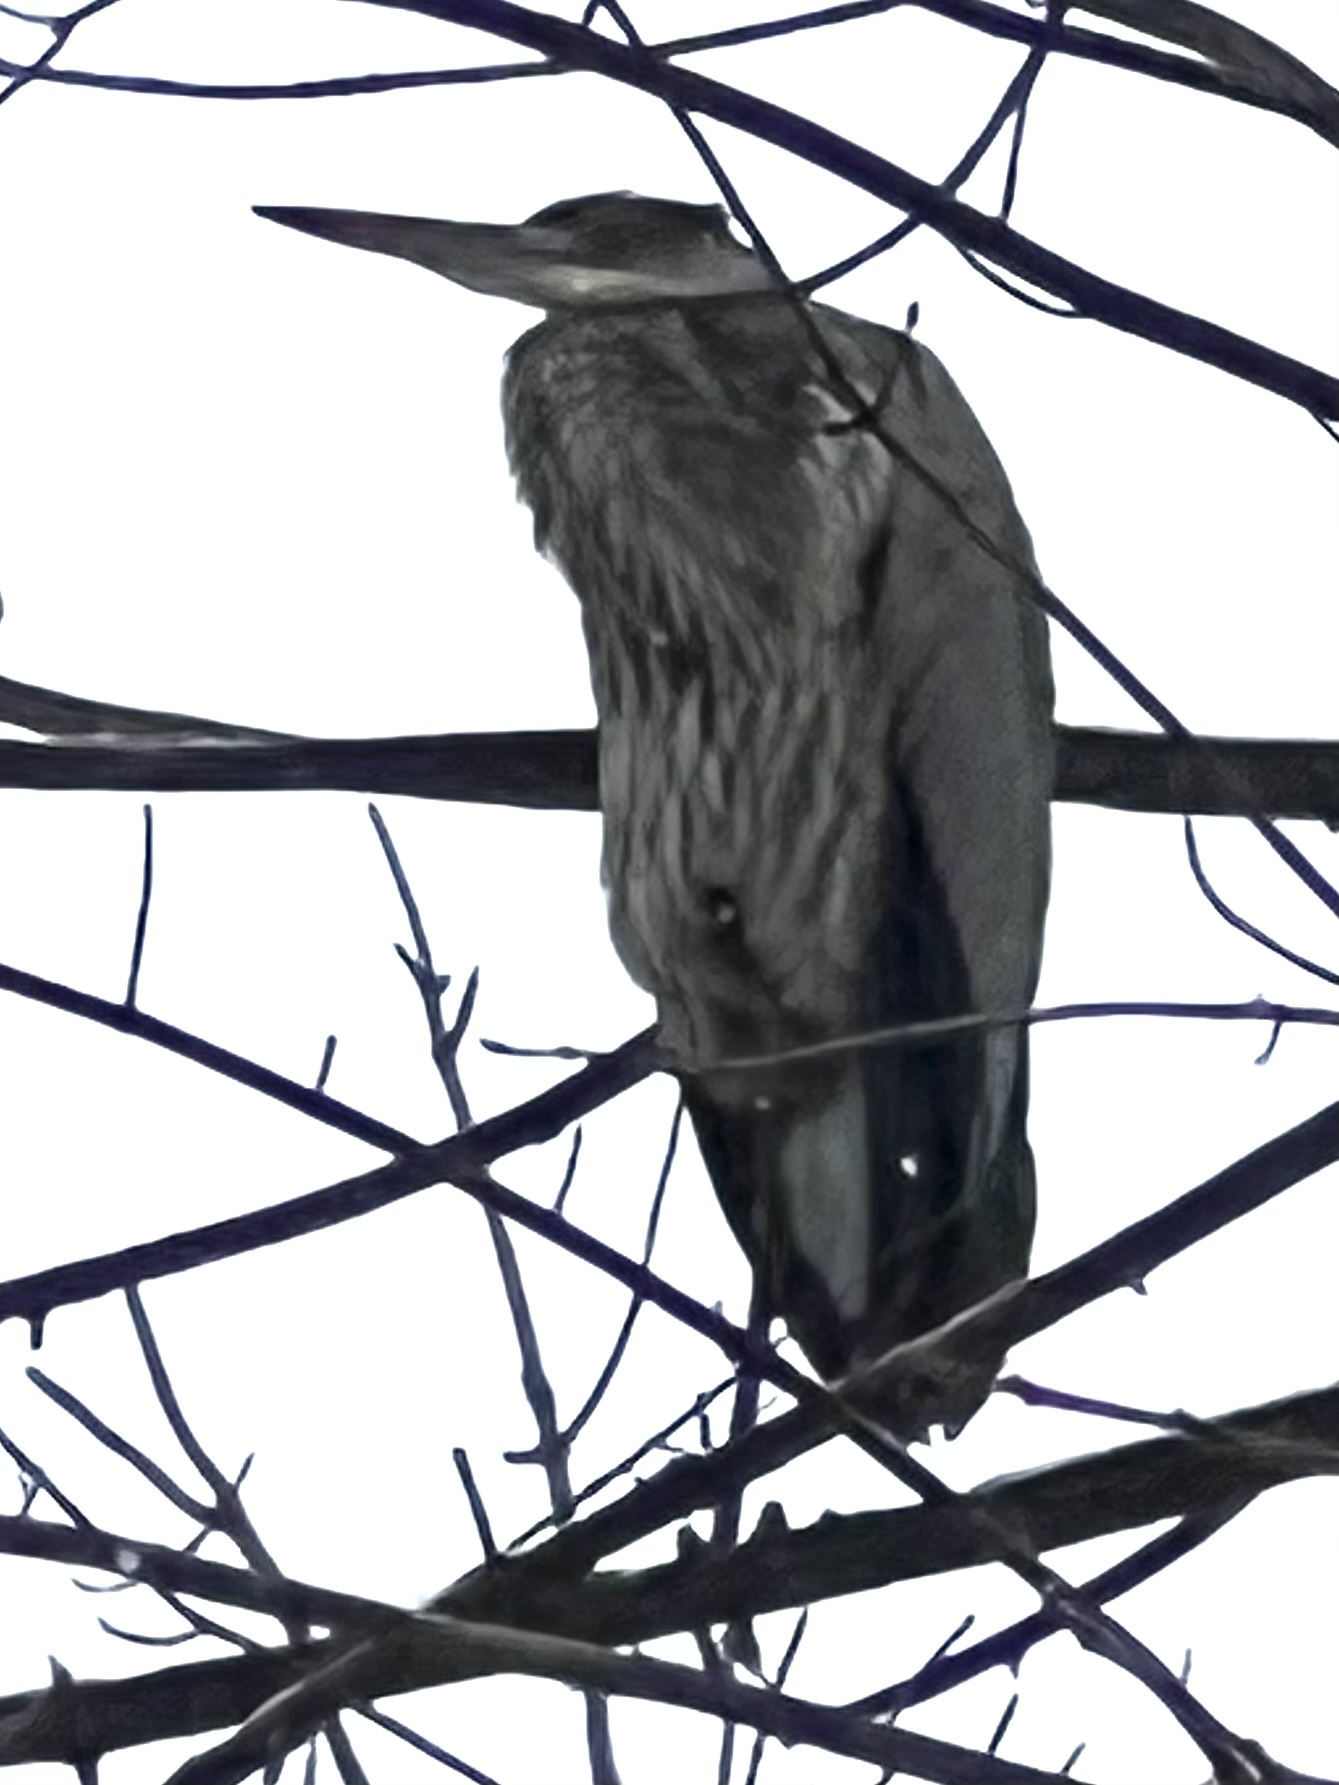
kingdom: Animalia
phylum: Chordata
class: Aves
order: Pelecaniformes
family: Ardeidae
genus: Ardea
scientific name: Ardea herodias
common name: Great blue heron
